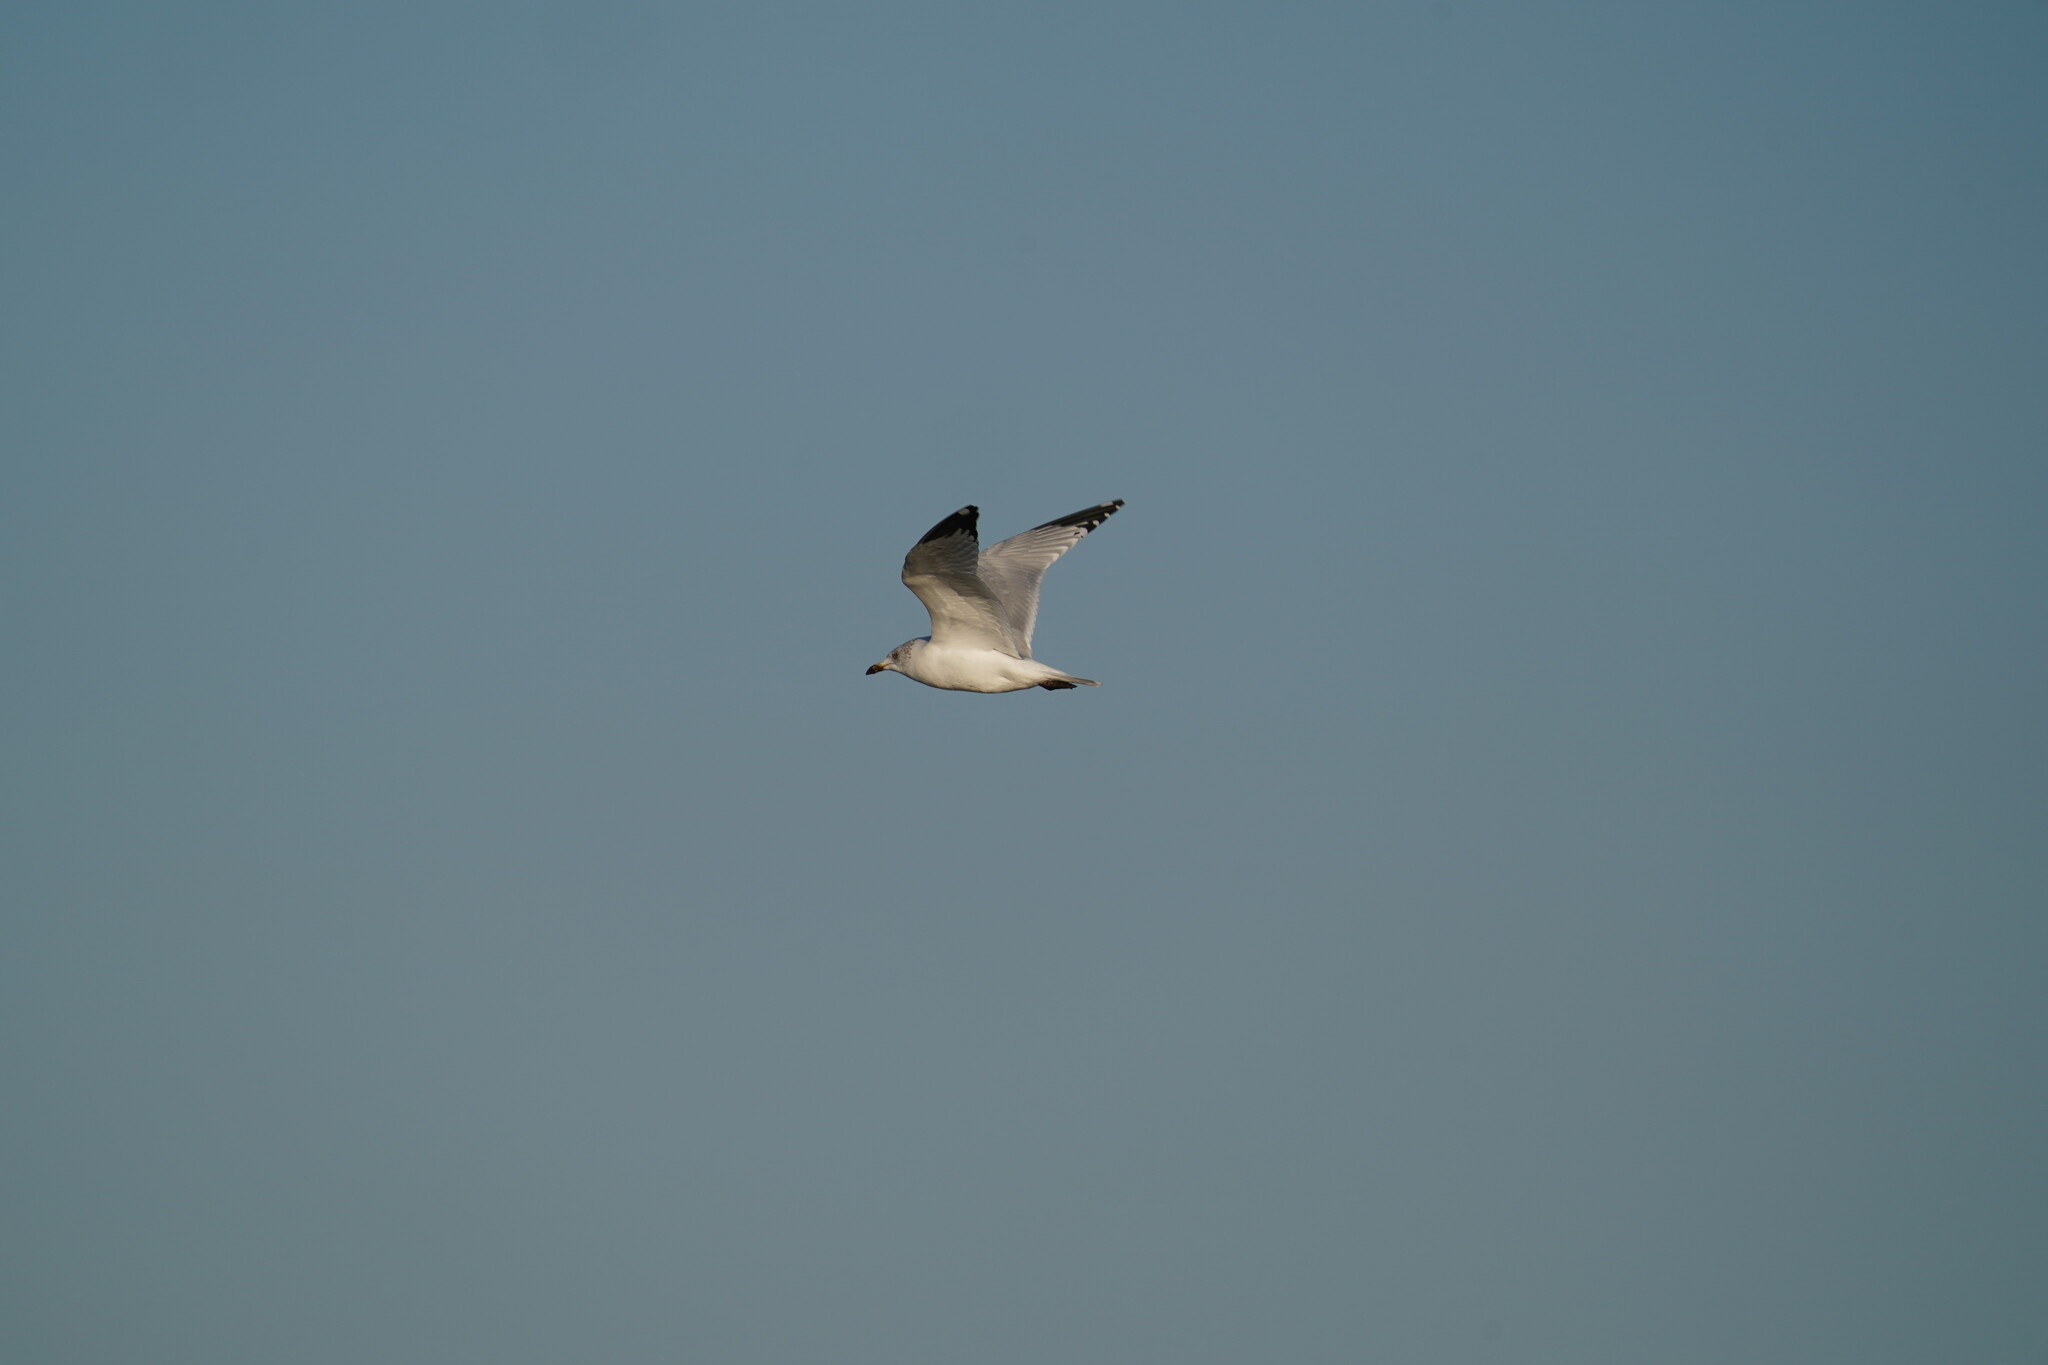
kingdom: Animalia
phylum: Chordata
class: Aves
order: Charadriiformes
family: Laridae
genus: Larus
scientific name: Larus delawarensis
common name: Ring-billed gull
